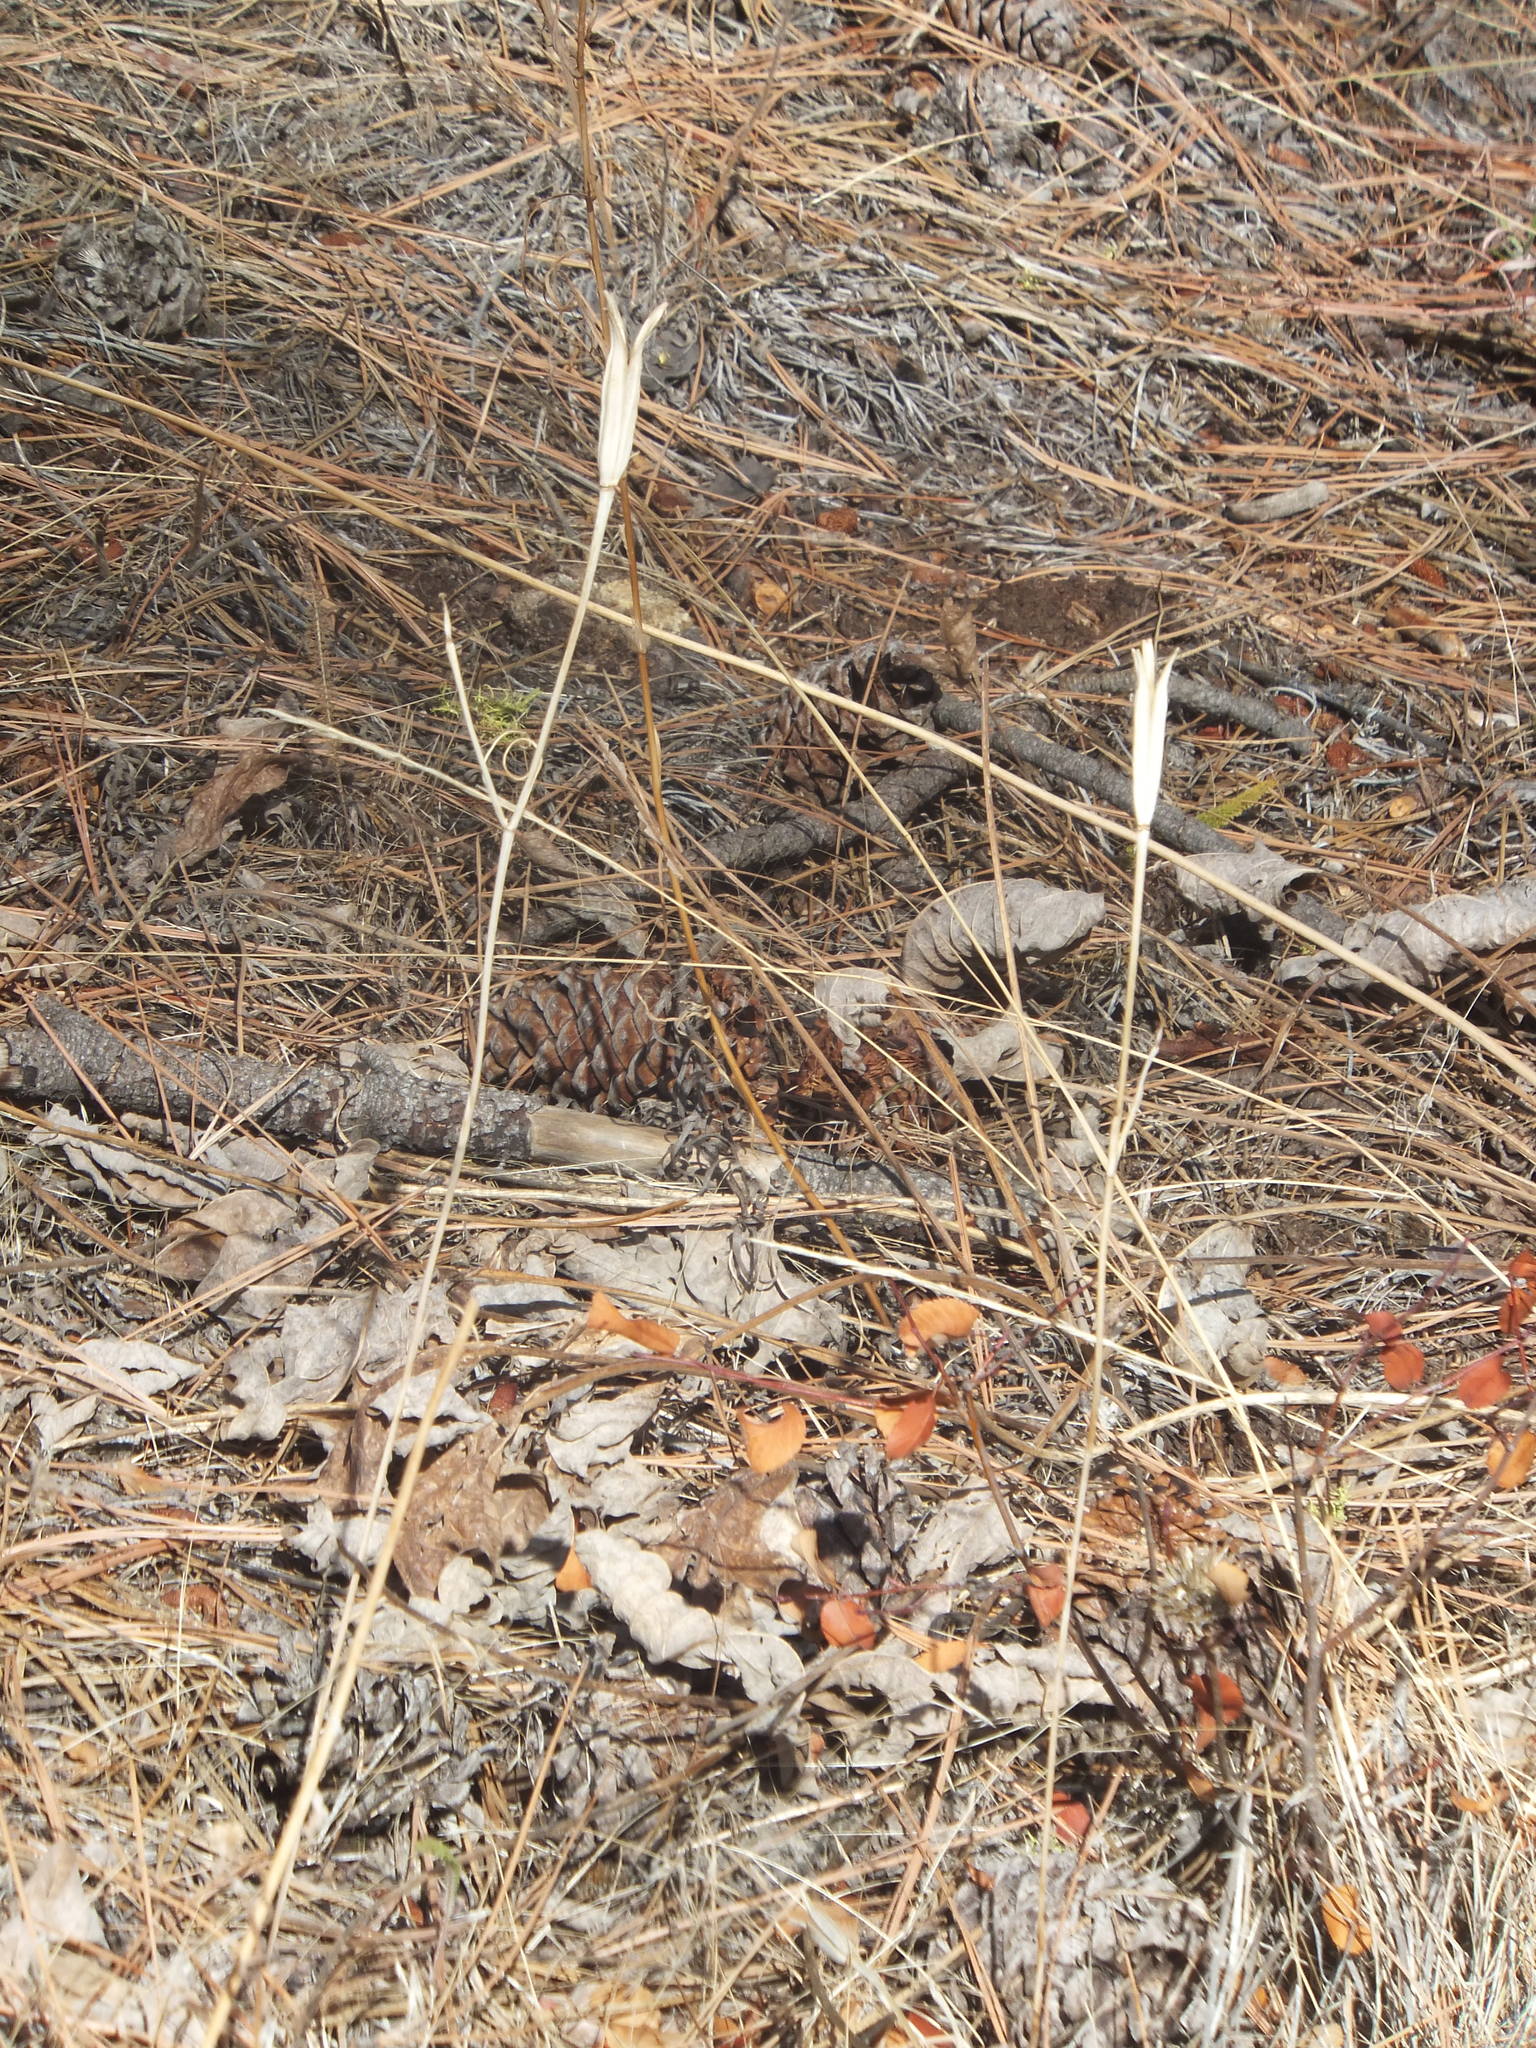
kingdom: Plantae
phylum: Tracheophyta
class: Liliopsida
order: Liliales
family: Liliaceae
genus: Calochortus
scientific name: Calochortus macrocarpus
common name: Green-band mariposa lily
